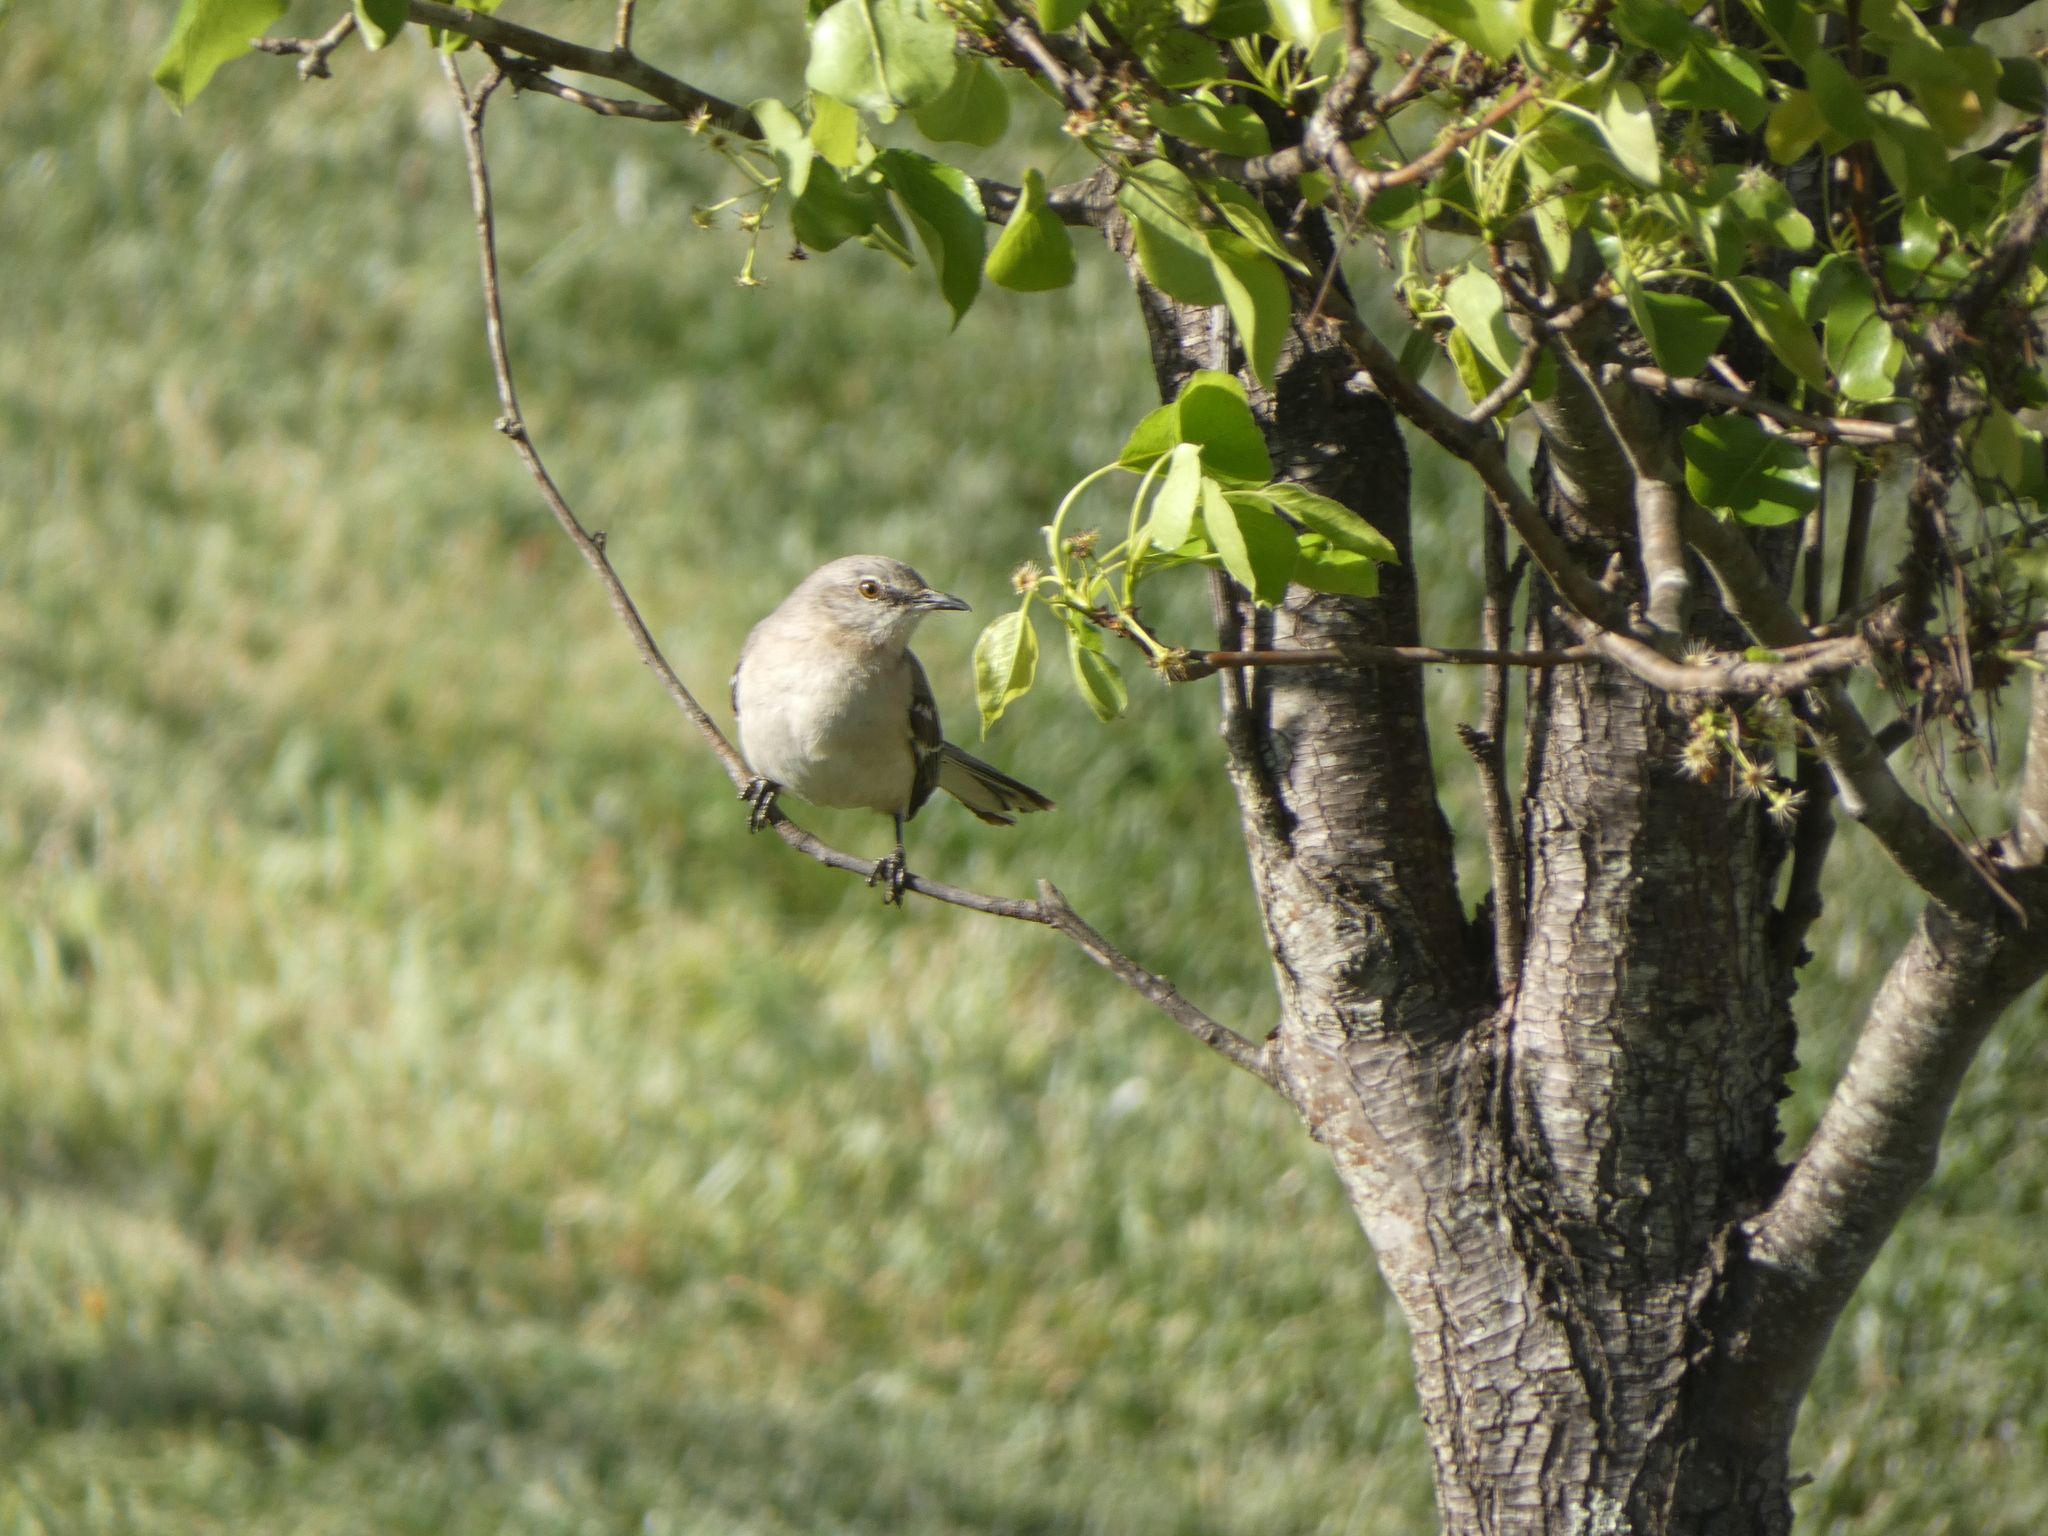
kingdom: Animalia
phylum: Chordata
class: Aves
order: Passeriformes
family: Mimidae
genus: Mimus
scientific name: Mimus polyglottos
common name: Northern mockingbird
